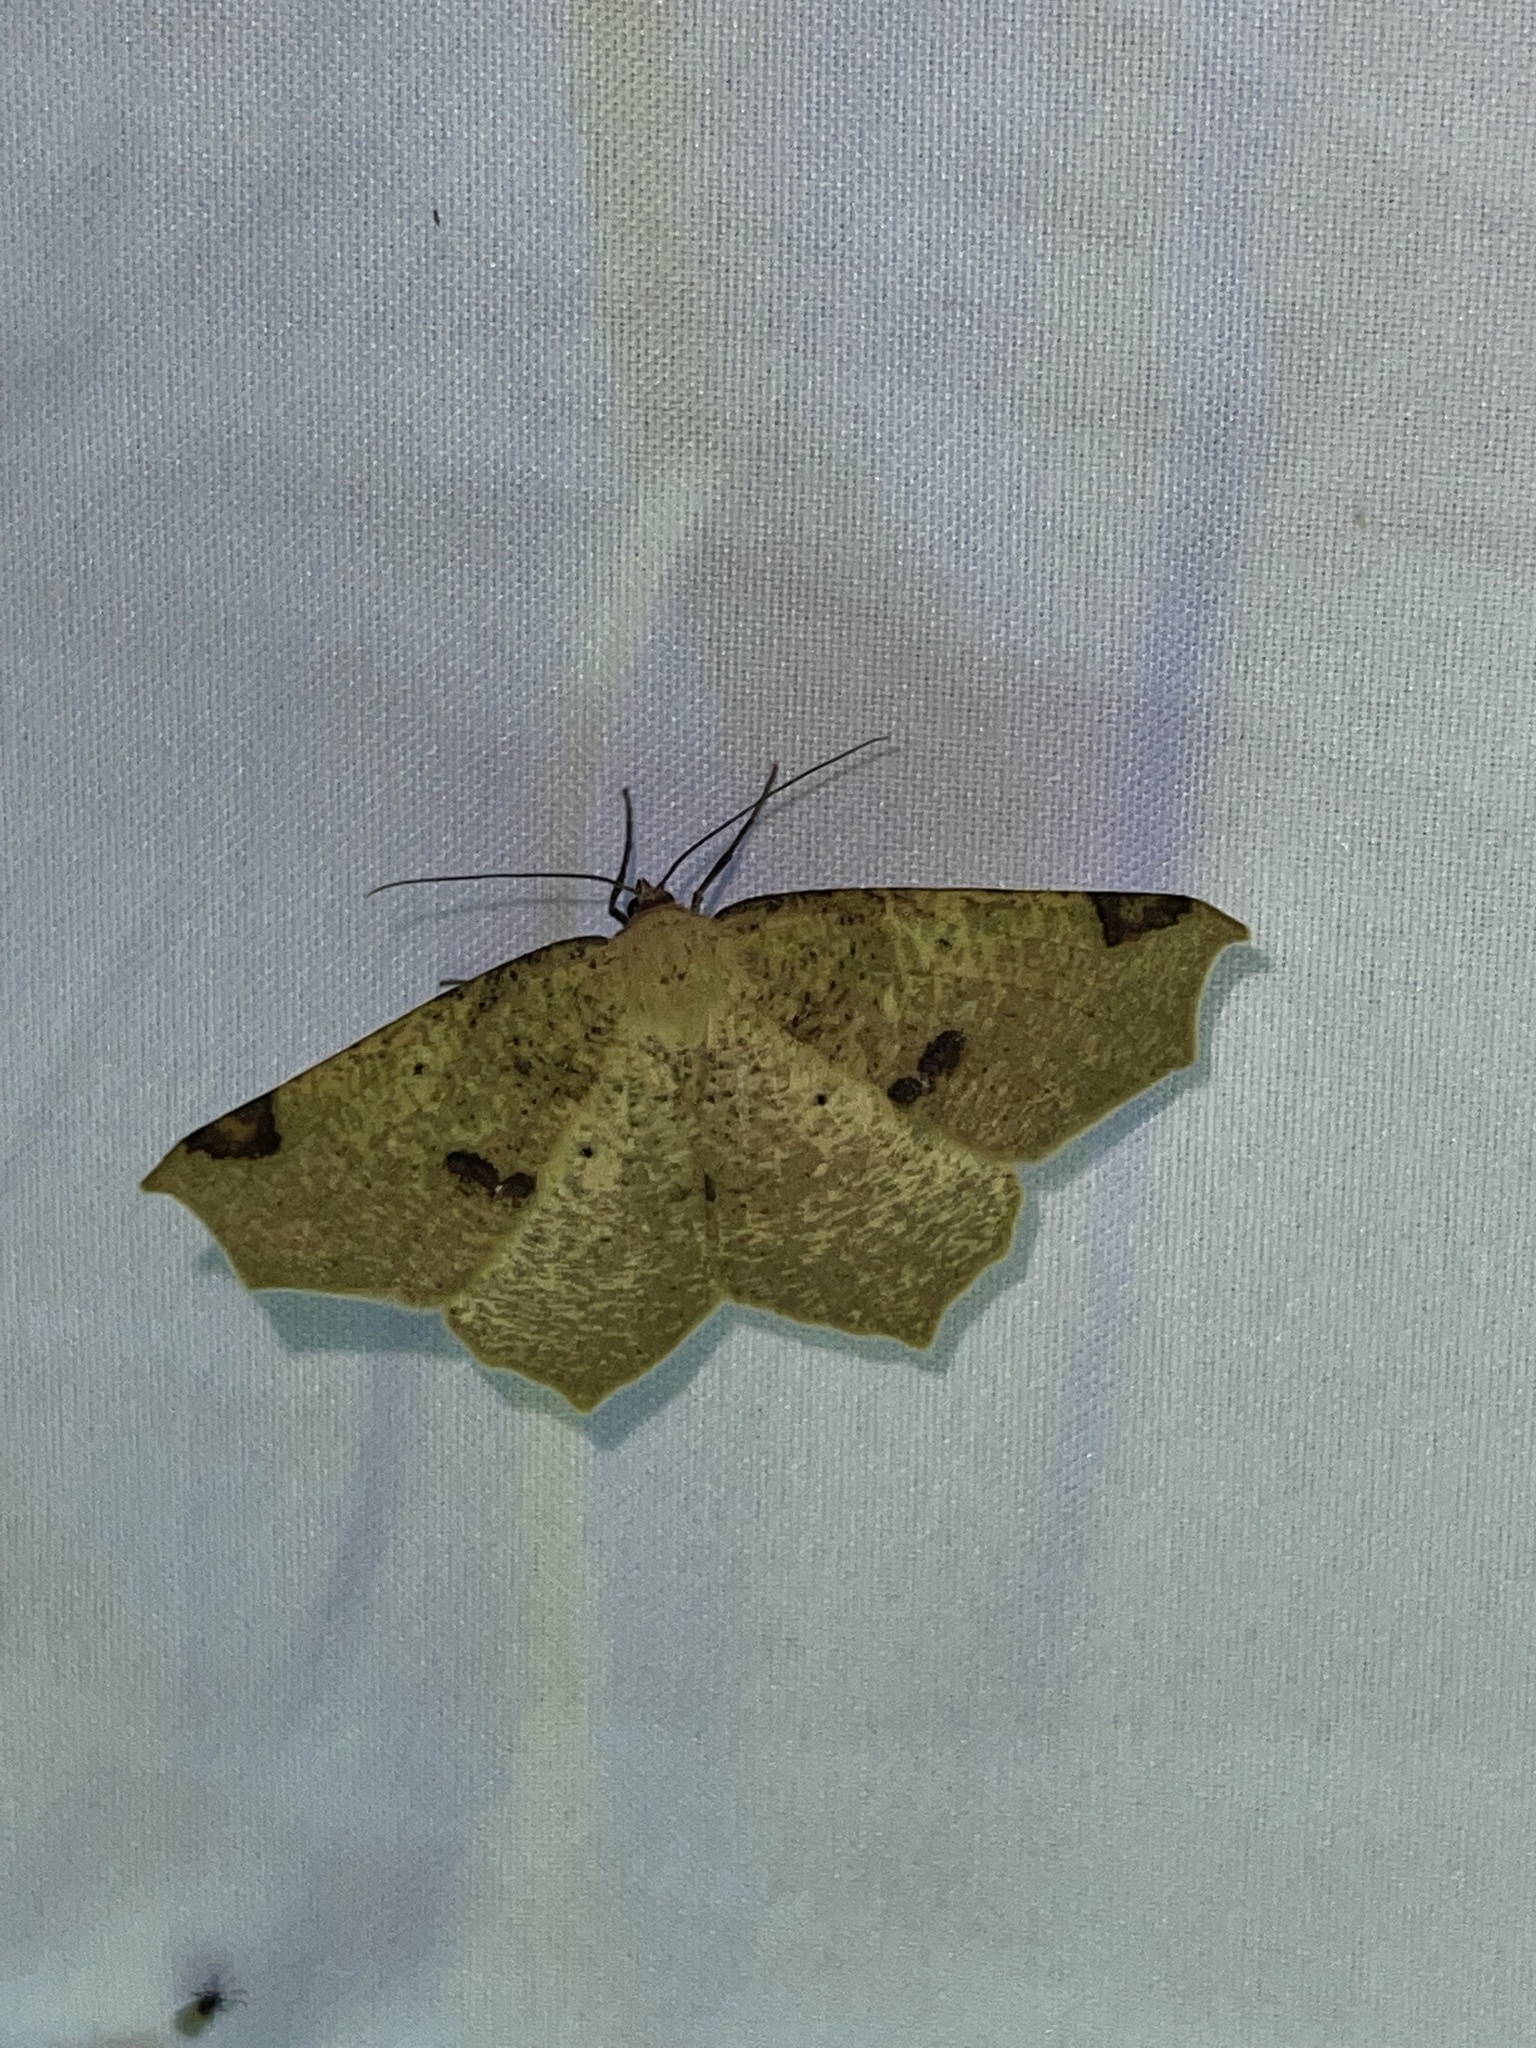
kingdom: Animalia
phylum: Arthropoda
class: Insecta
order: Lepidoptera
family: Geometridae
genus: Antepione
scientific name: Antepione thisoaria
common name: Variable antipione
